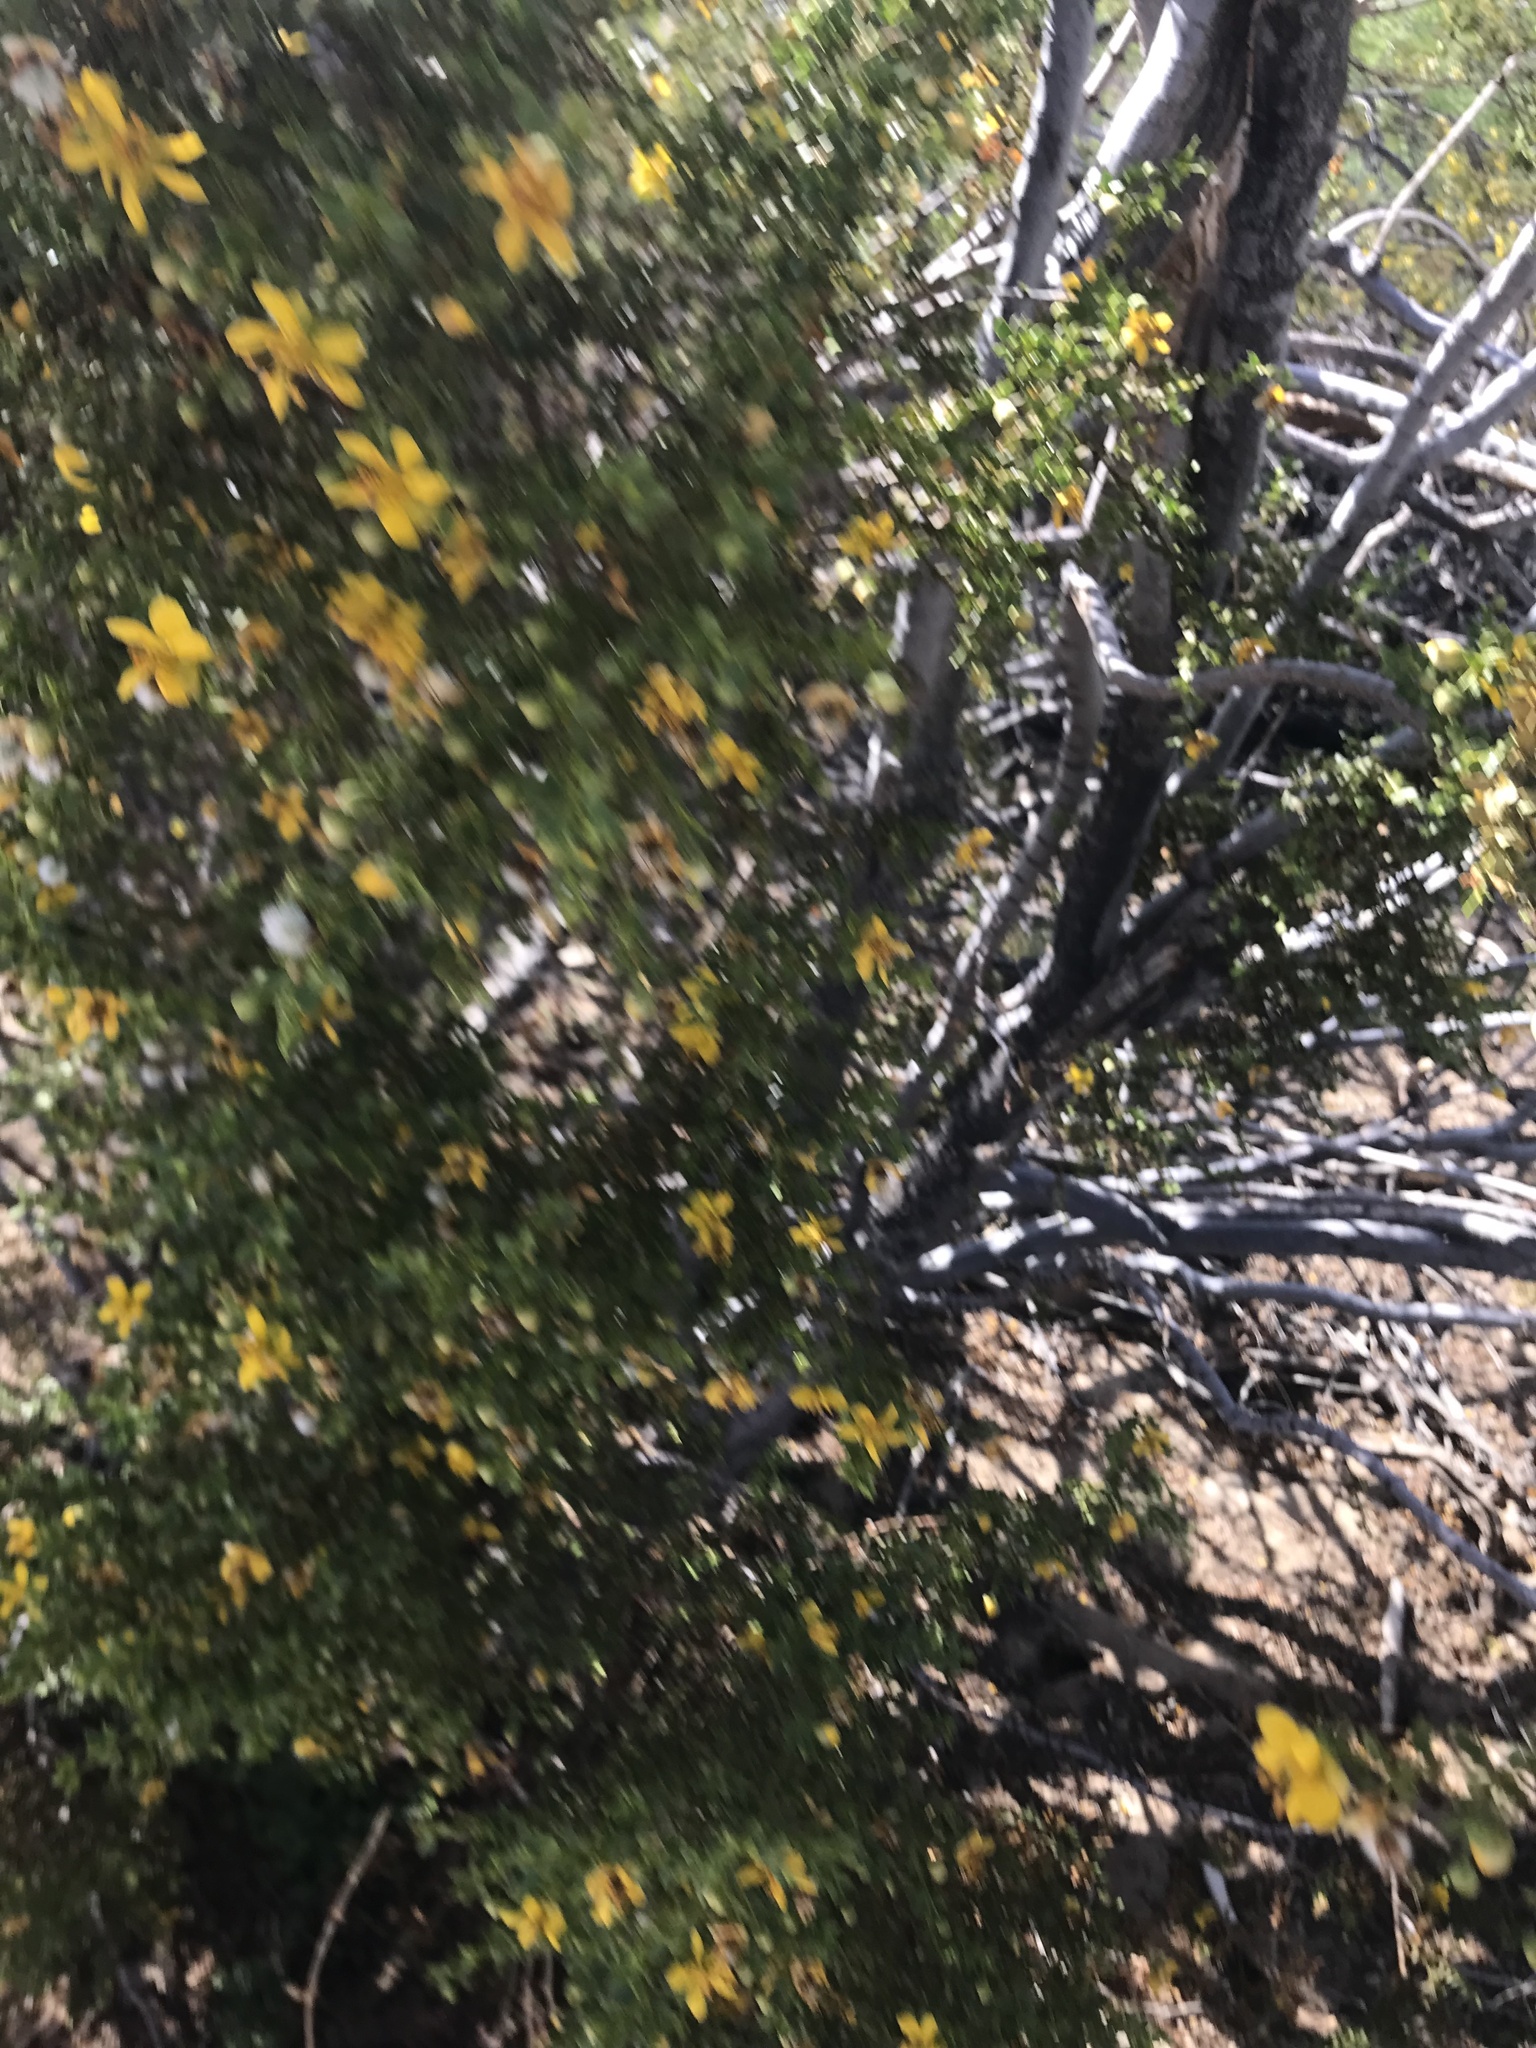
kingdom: Plantae
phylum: Tracheophyta
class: Magnoliopsida
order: Zygophyllales
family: Zygophyllaceae
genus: Larrea
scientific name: Larrea tridentata
